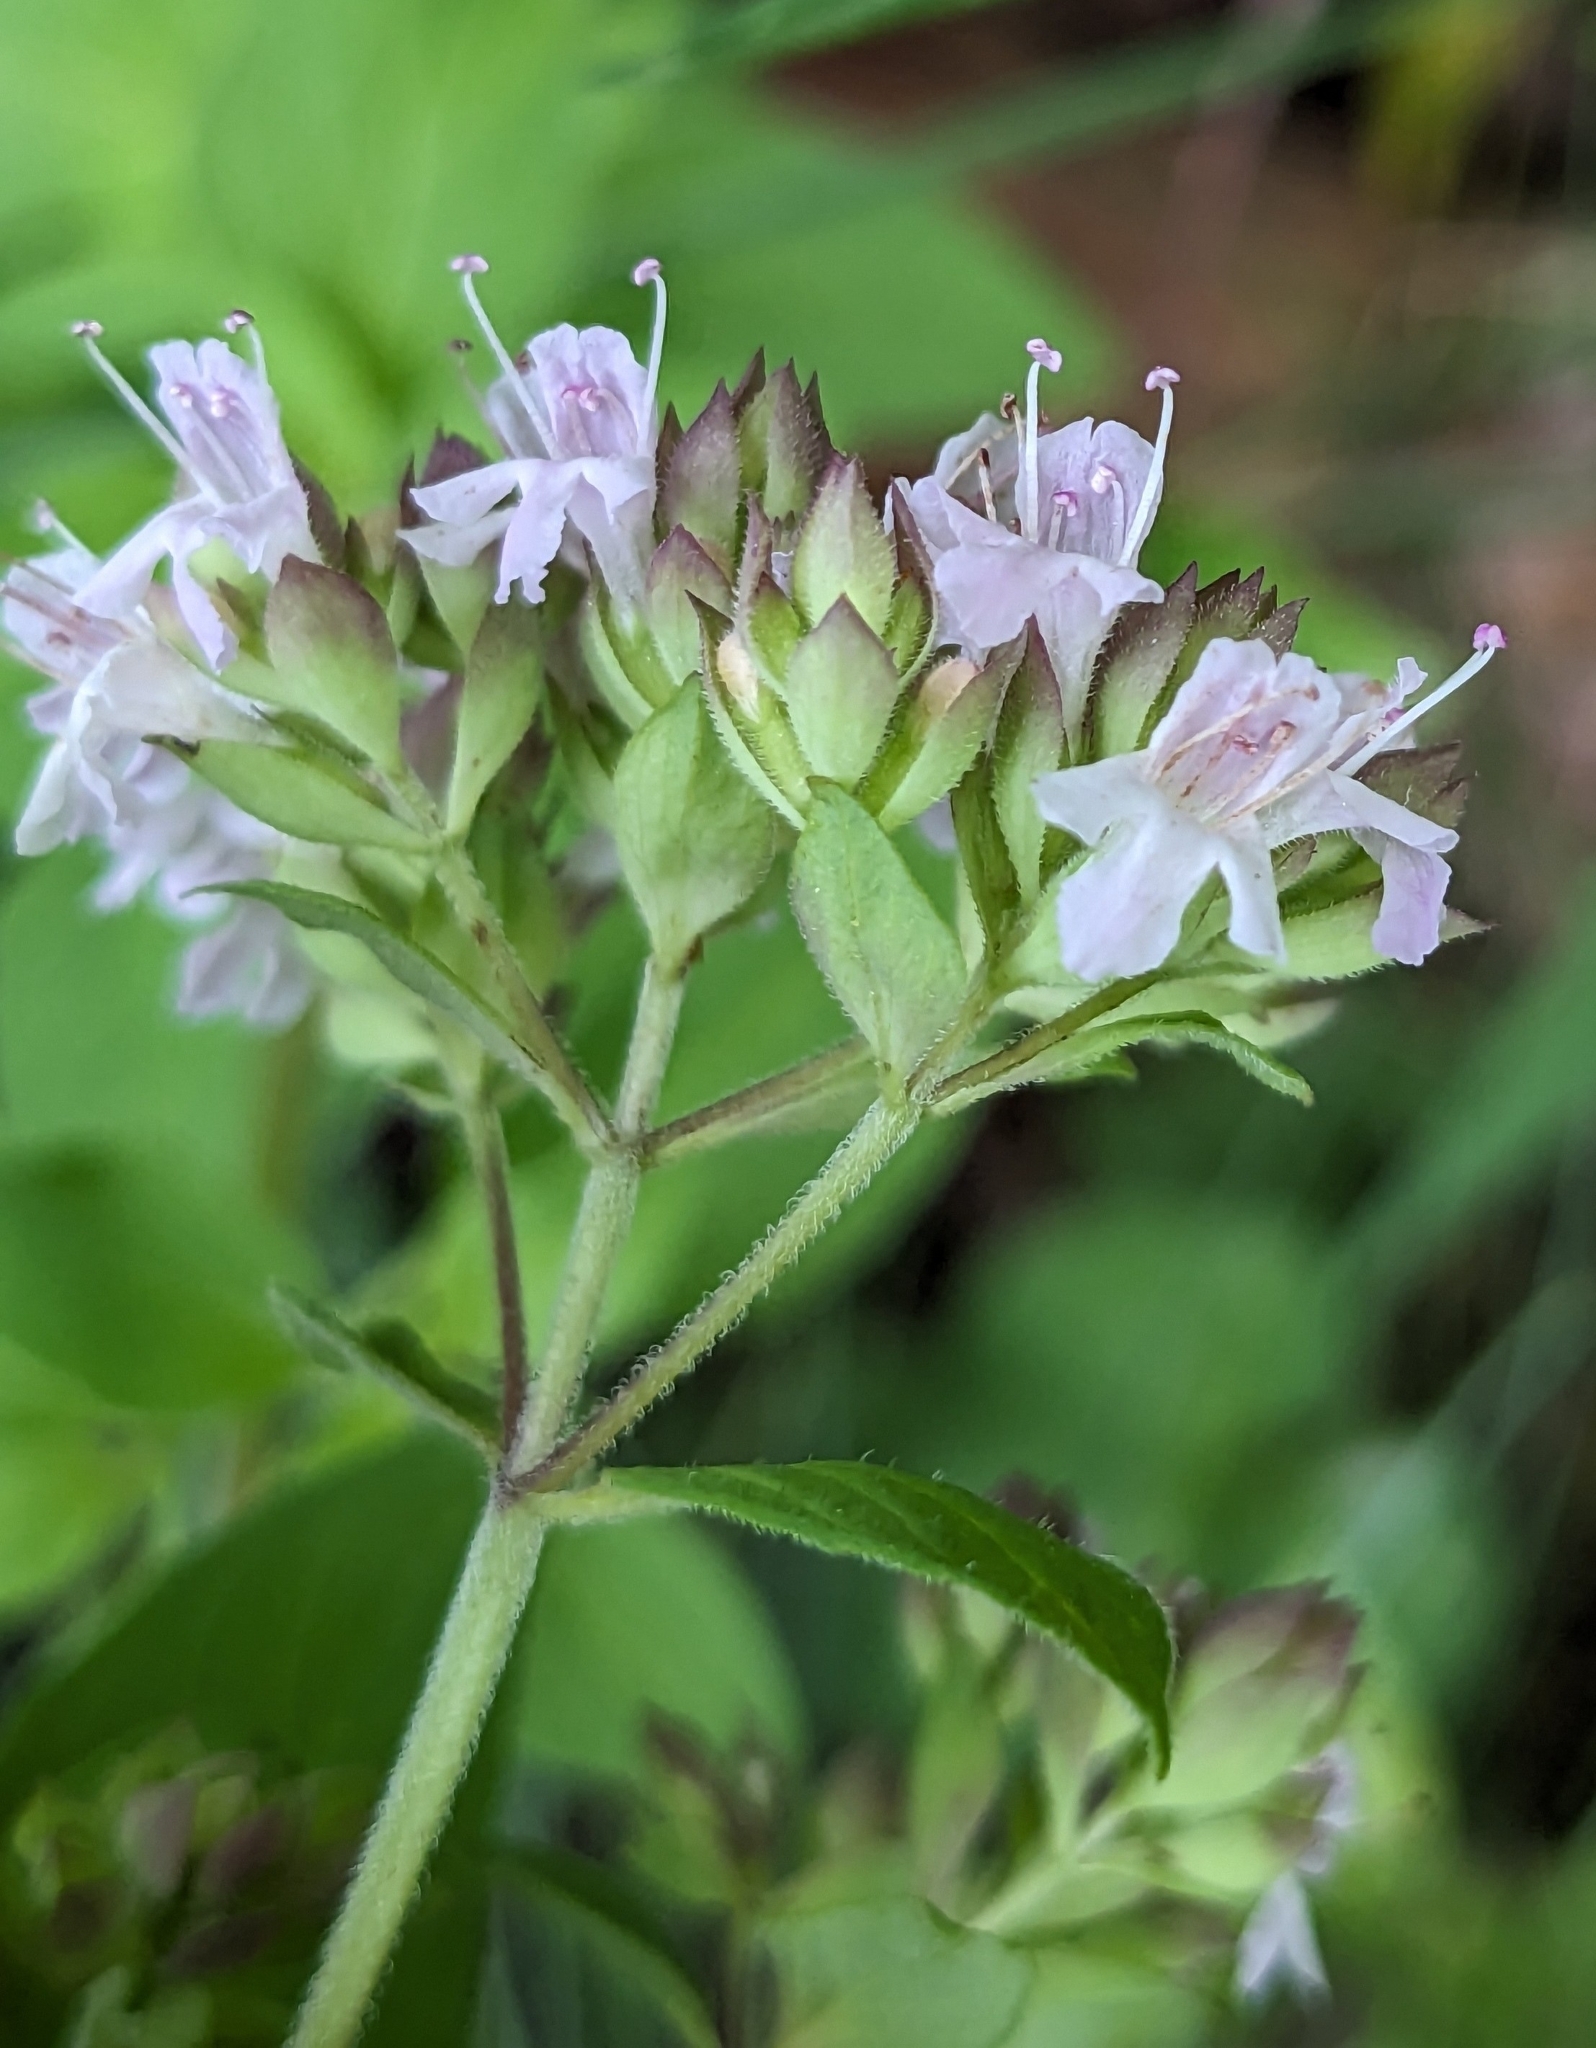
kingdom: Plantae
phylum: Tracheophyta
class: Magnoliopsida
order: Lamiales
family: Lamiaceae
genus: Origanum
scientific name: Origanum vulgare
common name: Wild marjoram
